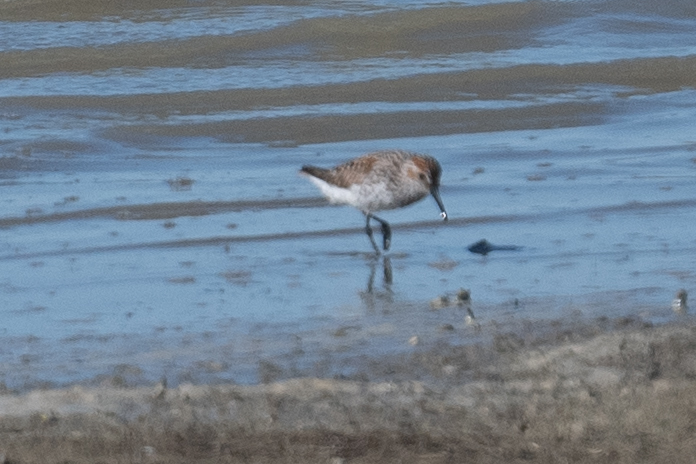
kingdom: Animalia
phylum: Chordata
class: Aves
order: Charadriiformes
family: Scolopacidae
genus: Calidris
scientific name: Calidris mauri
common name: Western sandpiper
